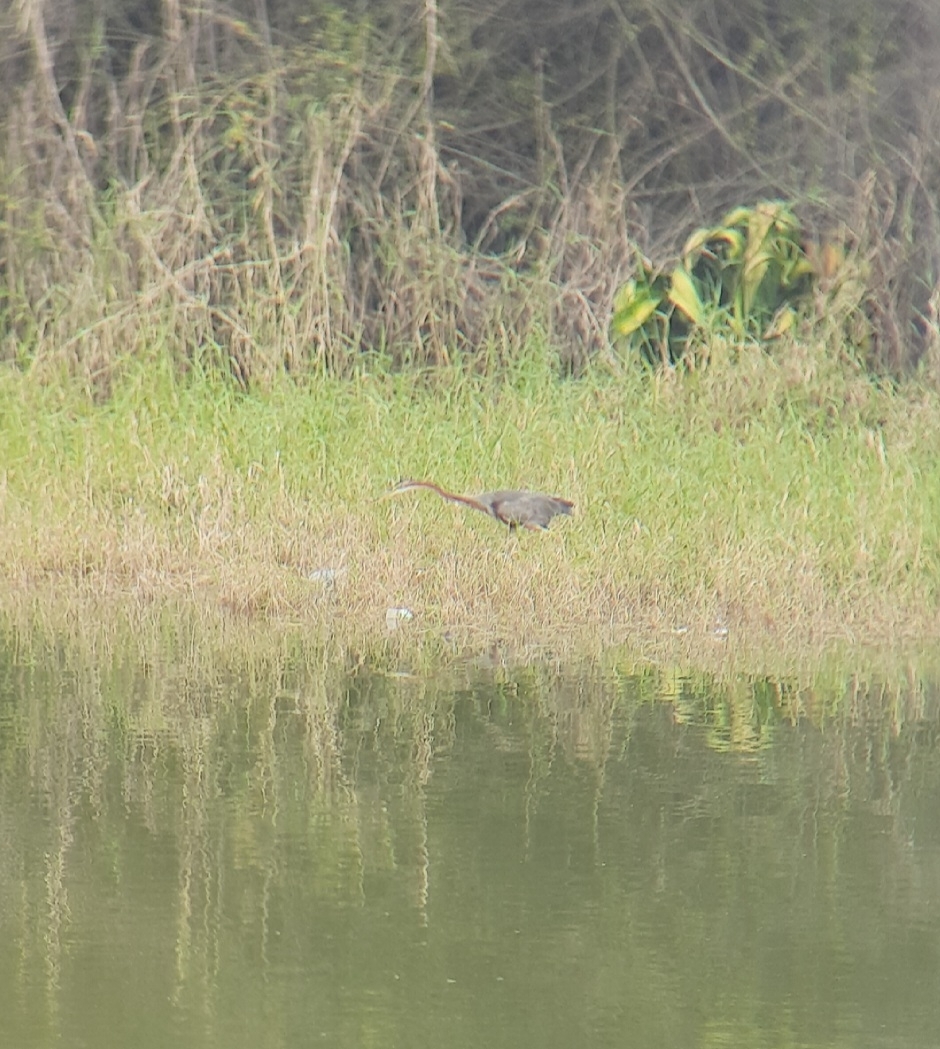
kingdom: Animalia
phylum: Chordata
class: Aves
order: Pelecaniformes
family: Ardeidae
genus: Ardea
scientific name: Ardea purpurea
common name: Purple heron
